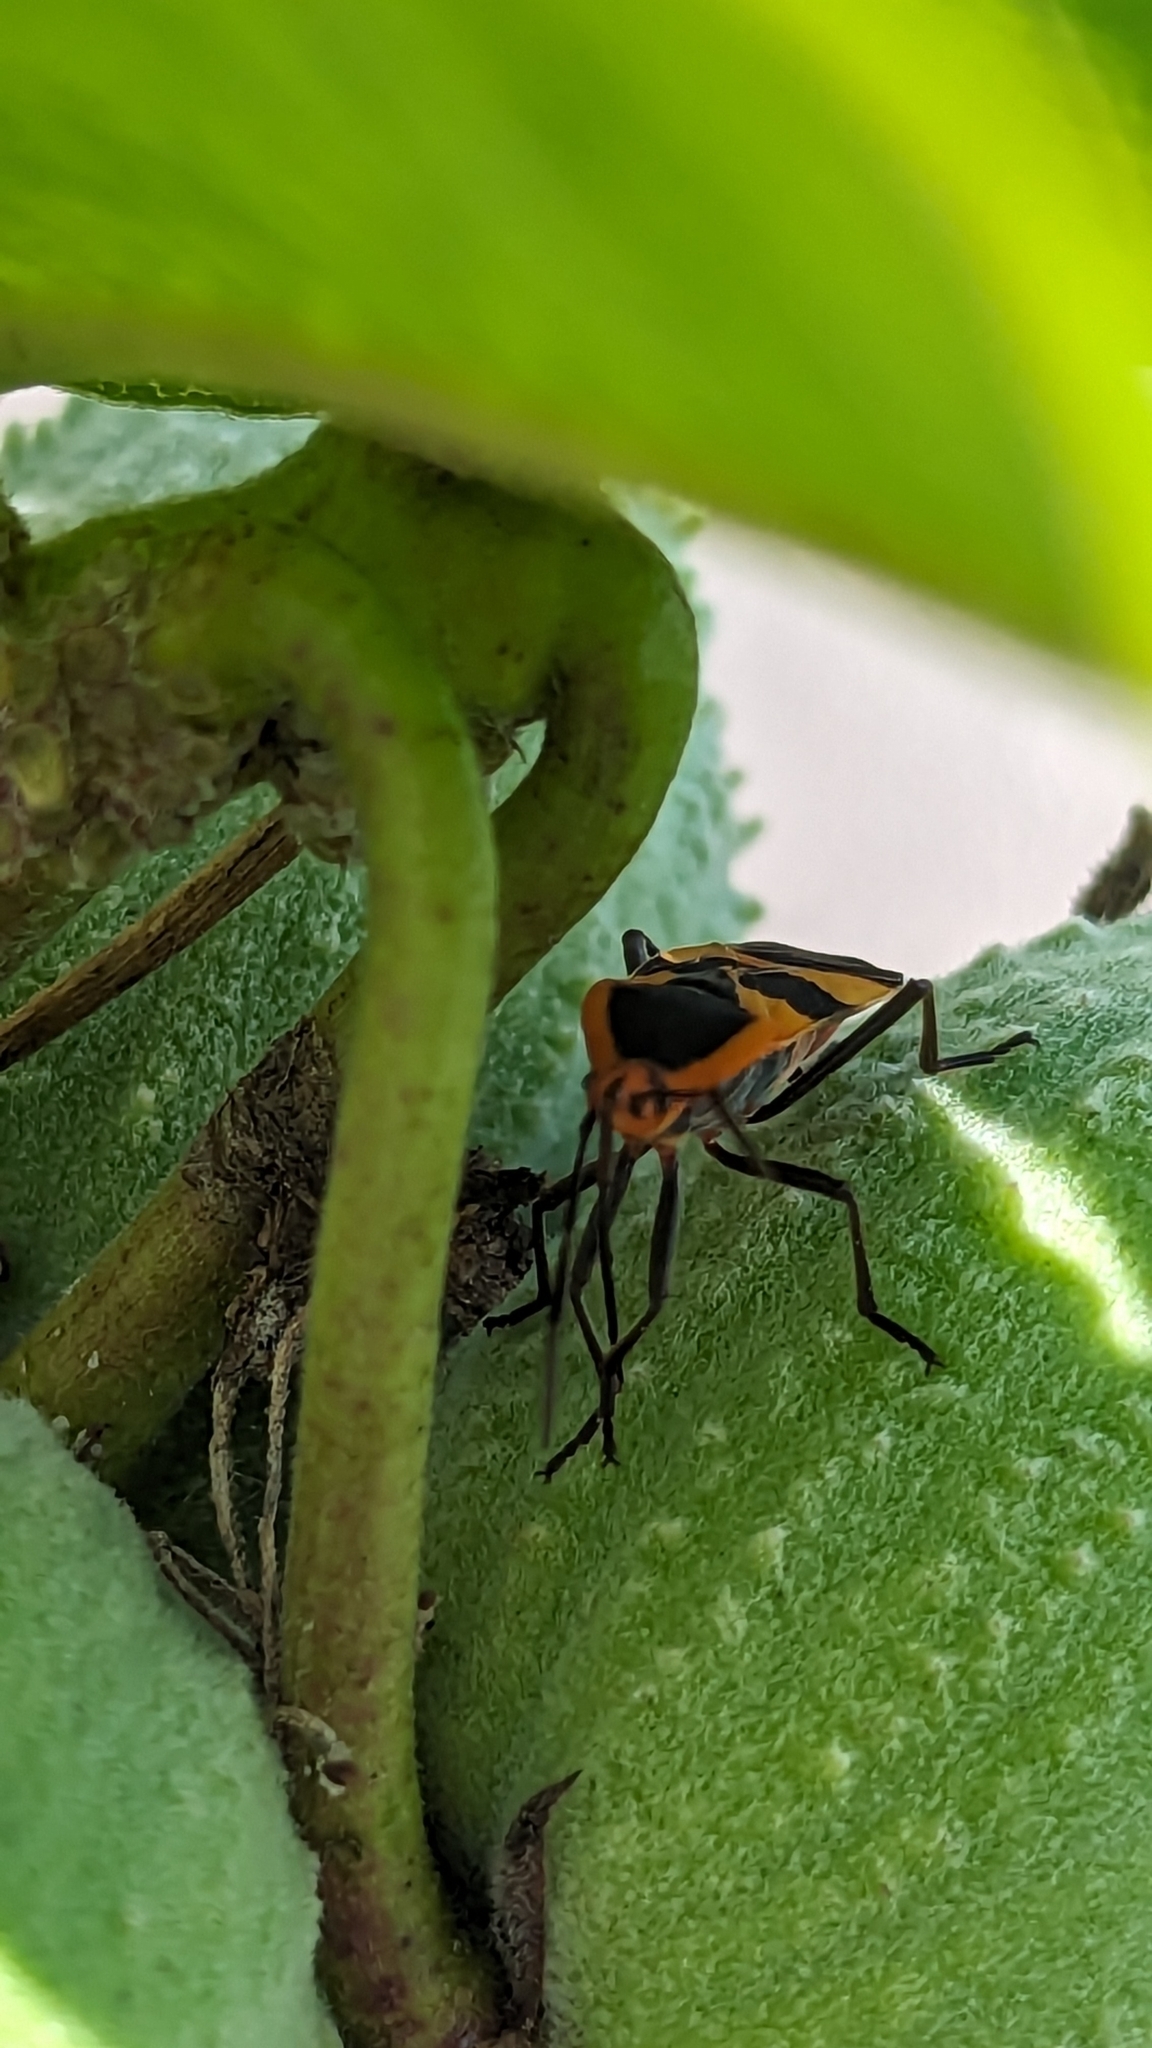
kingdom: Animalia
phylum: Arthropoda
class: Insecta
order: Hemiptera
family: Lygaeidae
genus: Oncopeltus
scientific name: Oncopeltus fasciatus
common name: Large milkweed bug
